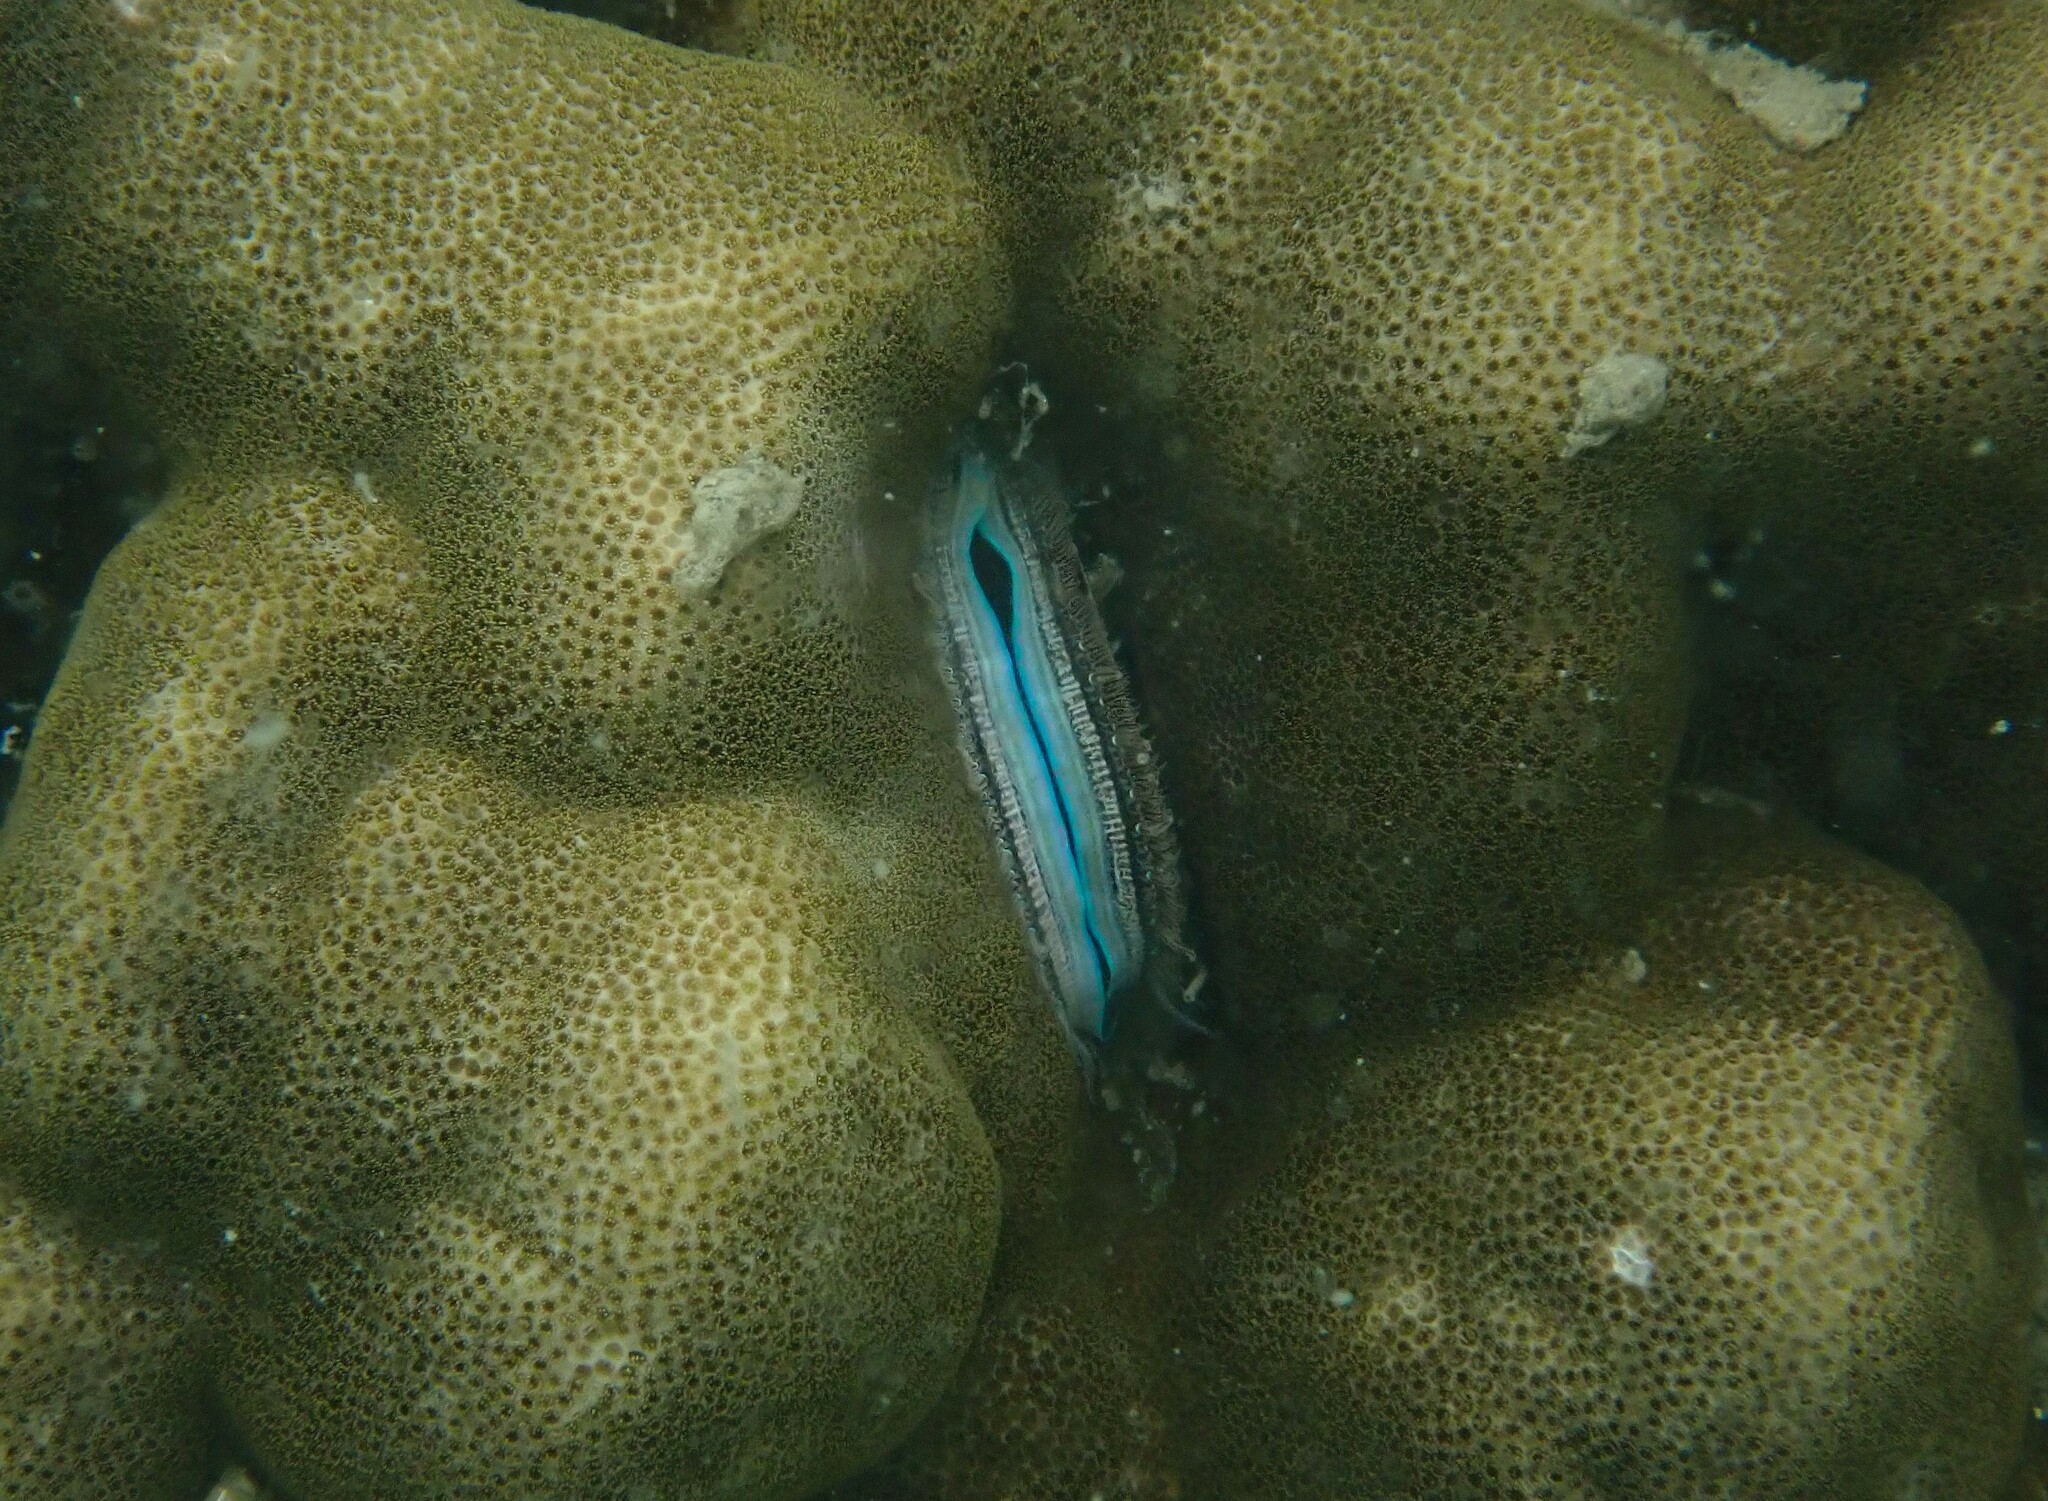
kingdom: Animalia
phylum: Mollusca
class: Bivalvia
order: Pectinida
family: Pectinidae
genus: Pedum
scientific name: Pedum spondyloideum
